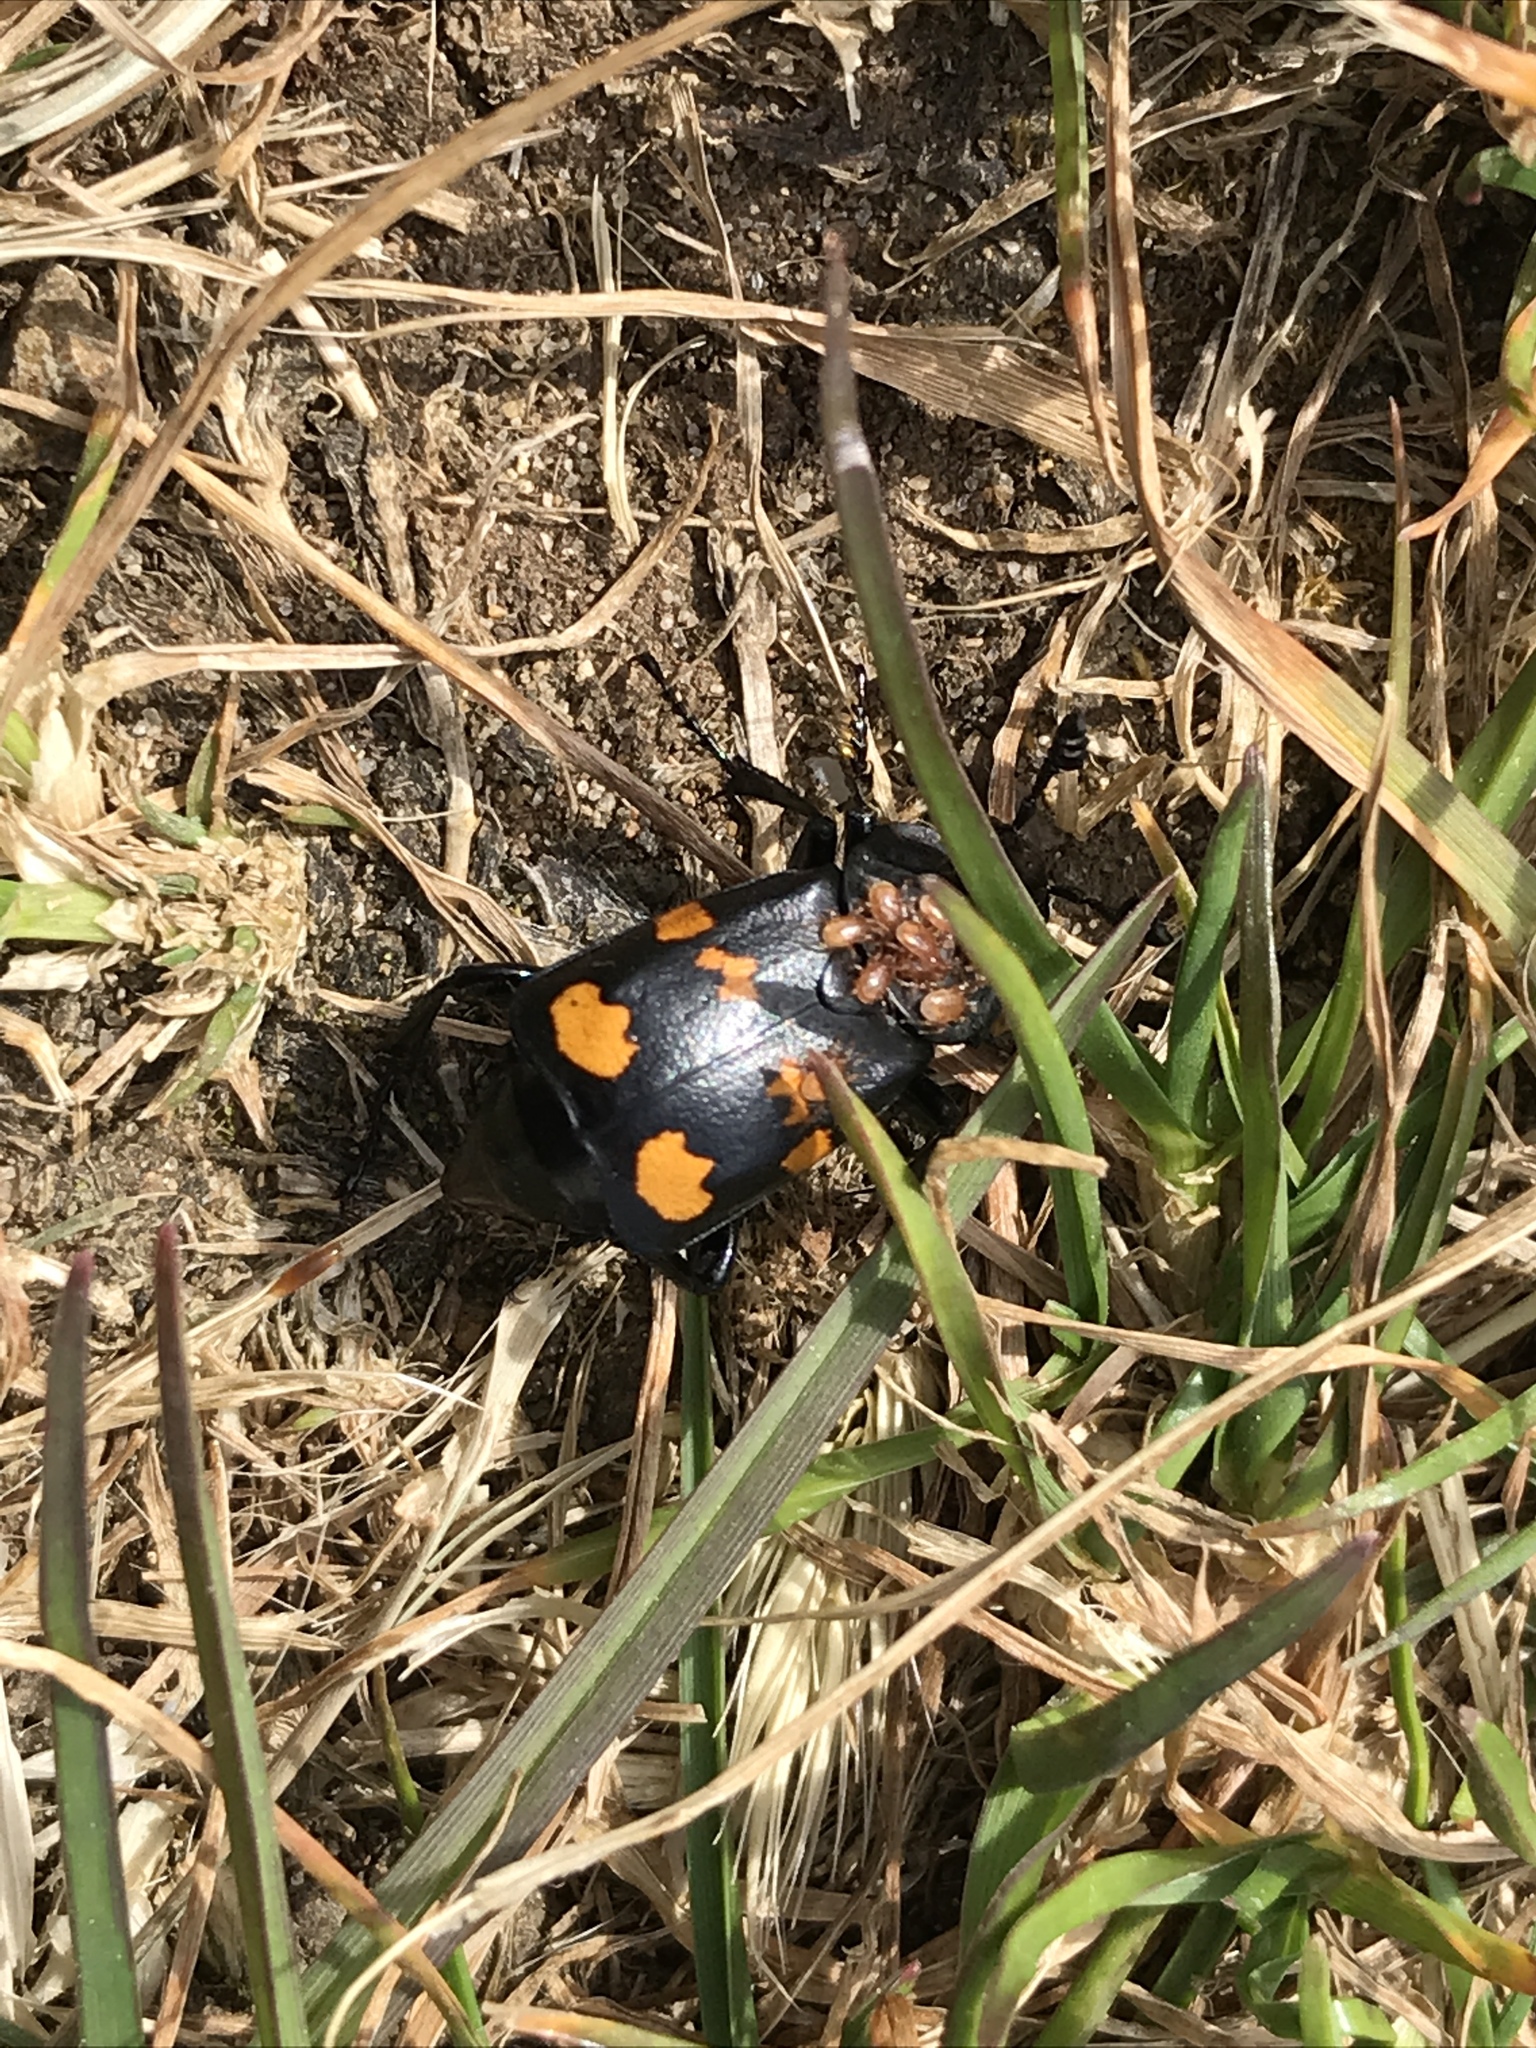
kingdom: Animalia
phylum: Arthropoda
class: Insecta
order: Coleoptera
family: Staphylinidae
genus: Nicrophorus
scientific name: Nicrophorus defodiens
